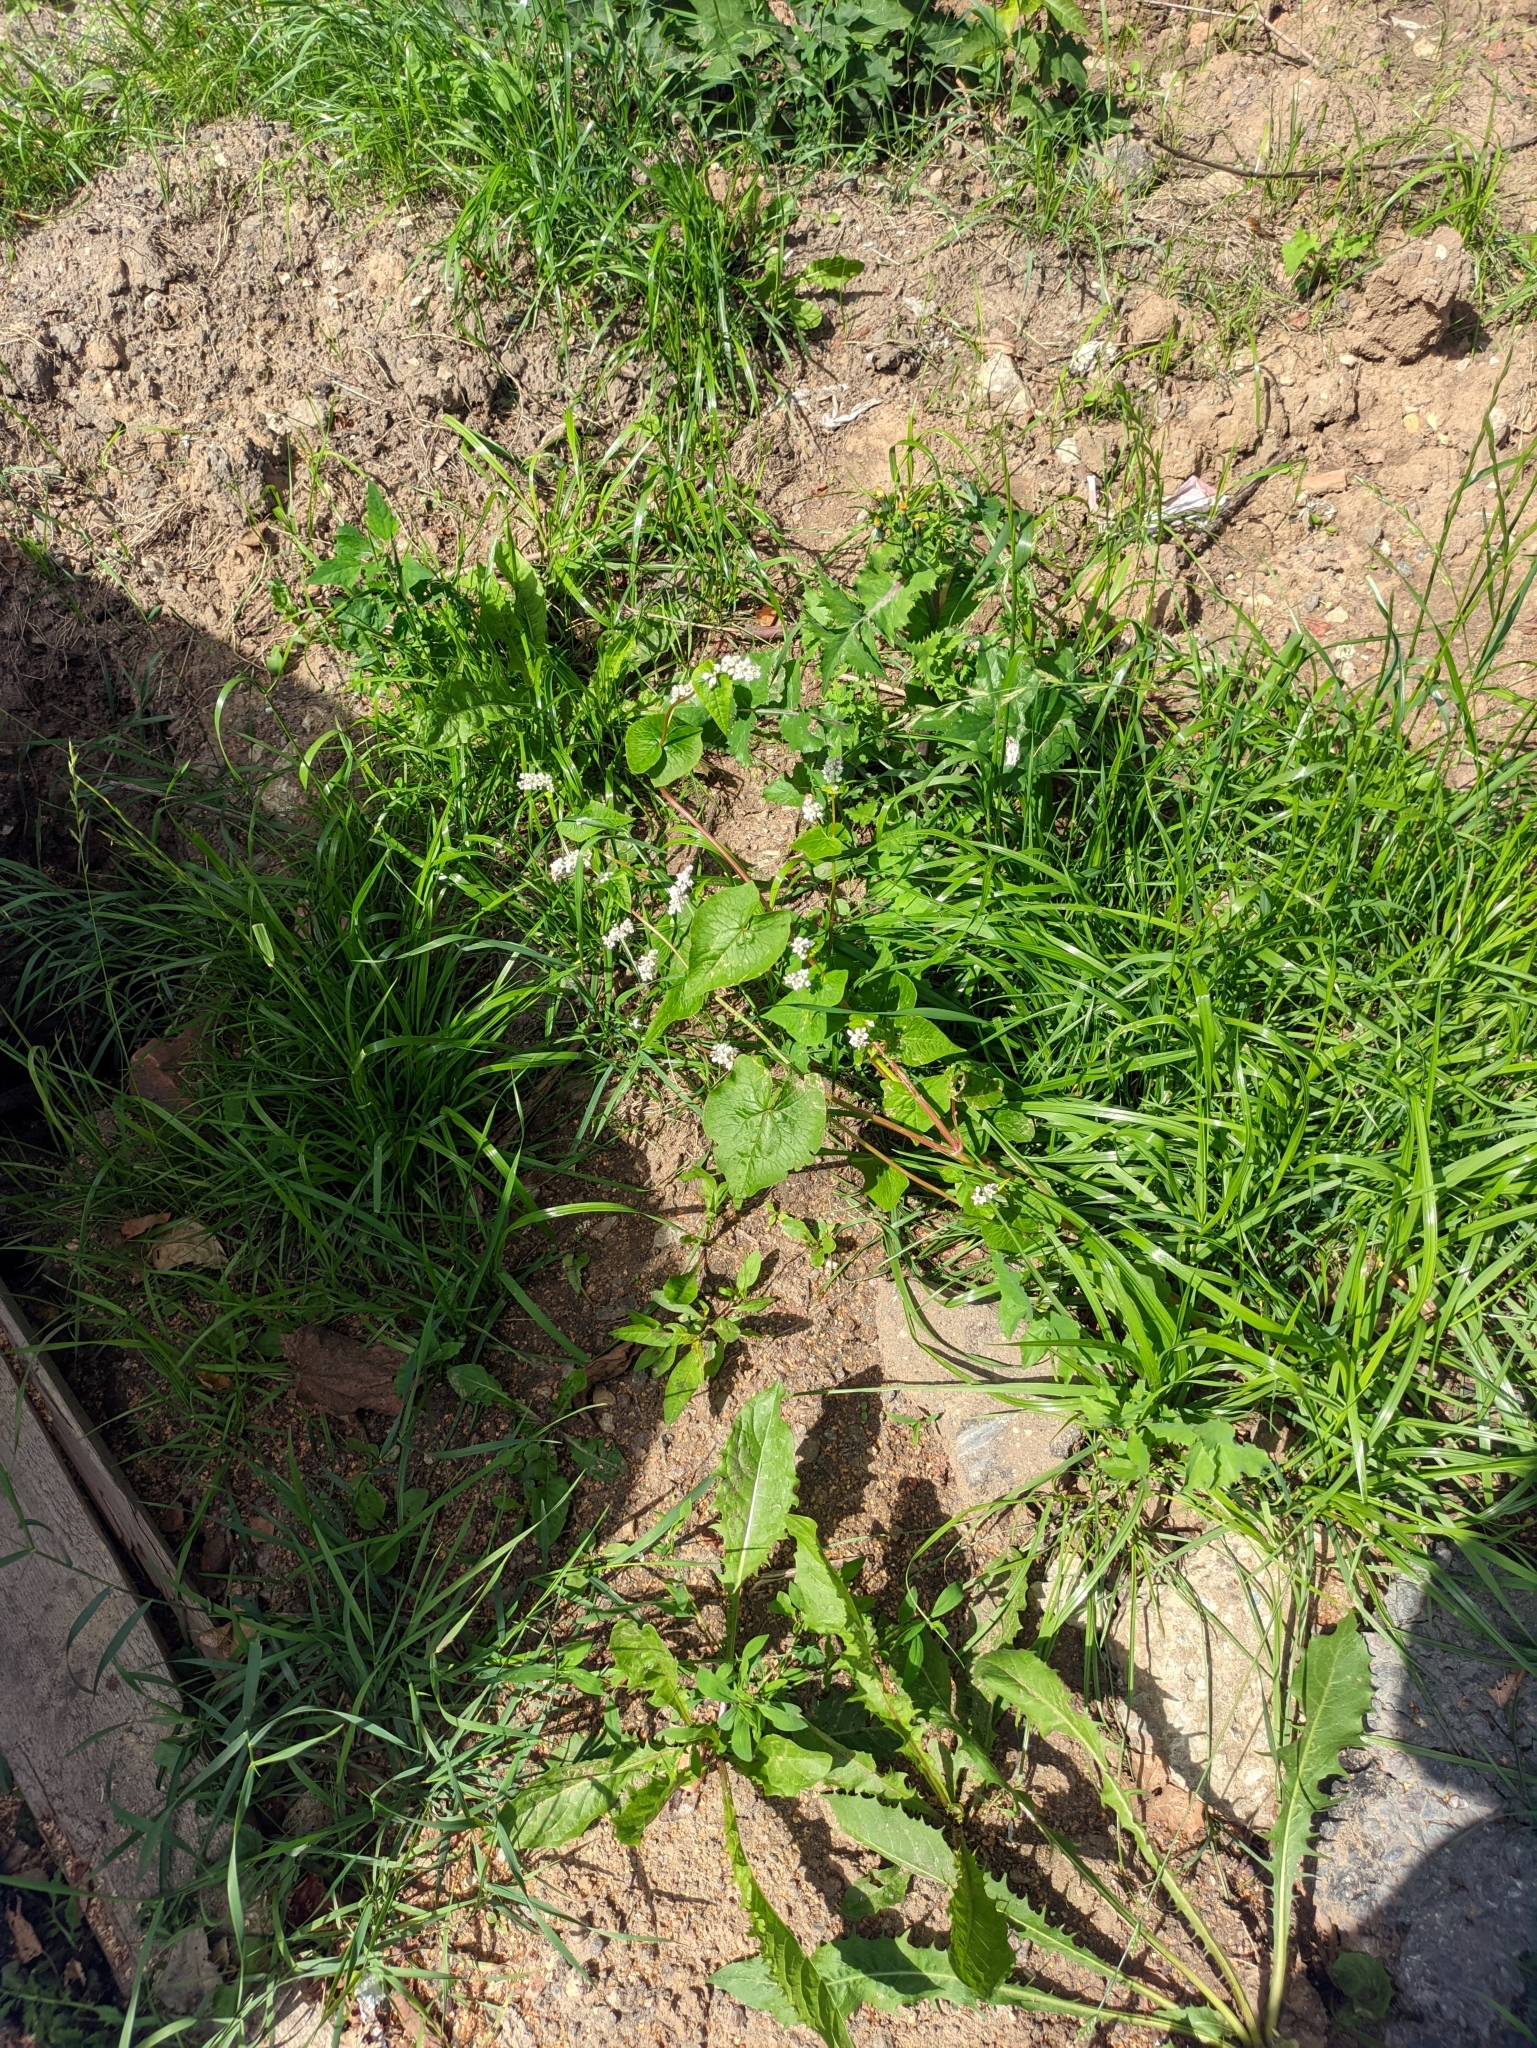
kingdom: Plantae
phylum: Tracheophyta
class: Magnoliopsida
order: Caryophyllales
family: Polygonaceae
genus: Fagopyrum
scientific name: Fagopyrum esculentum
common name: Buckwheat
